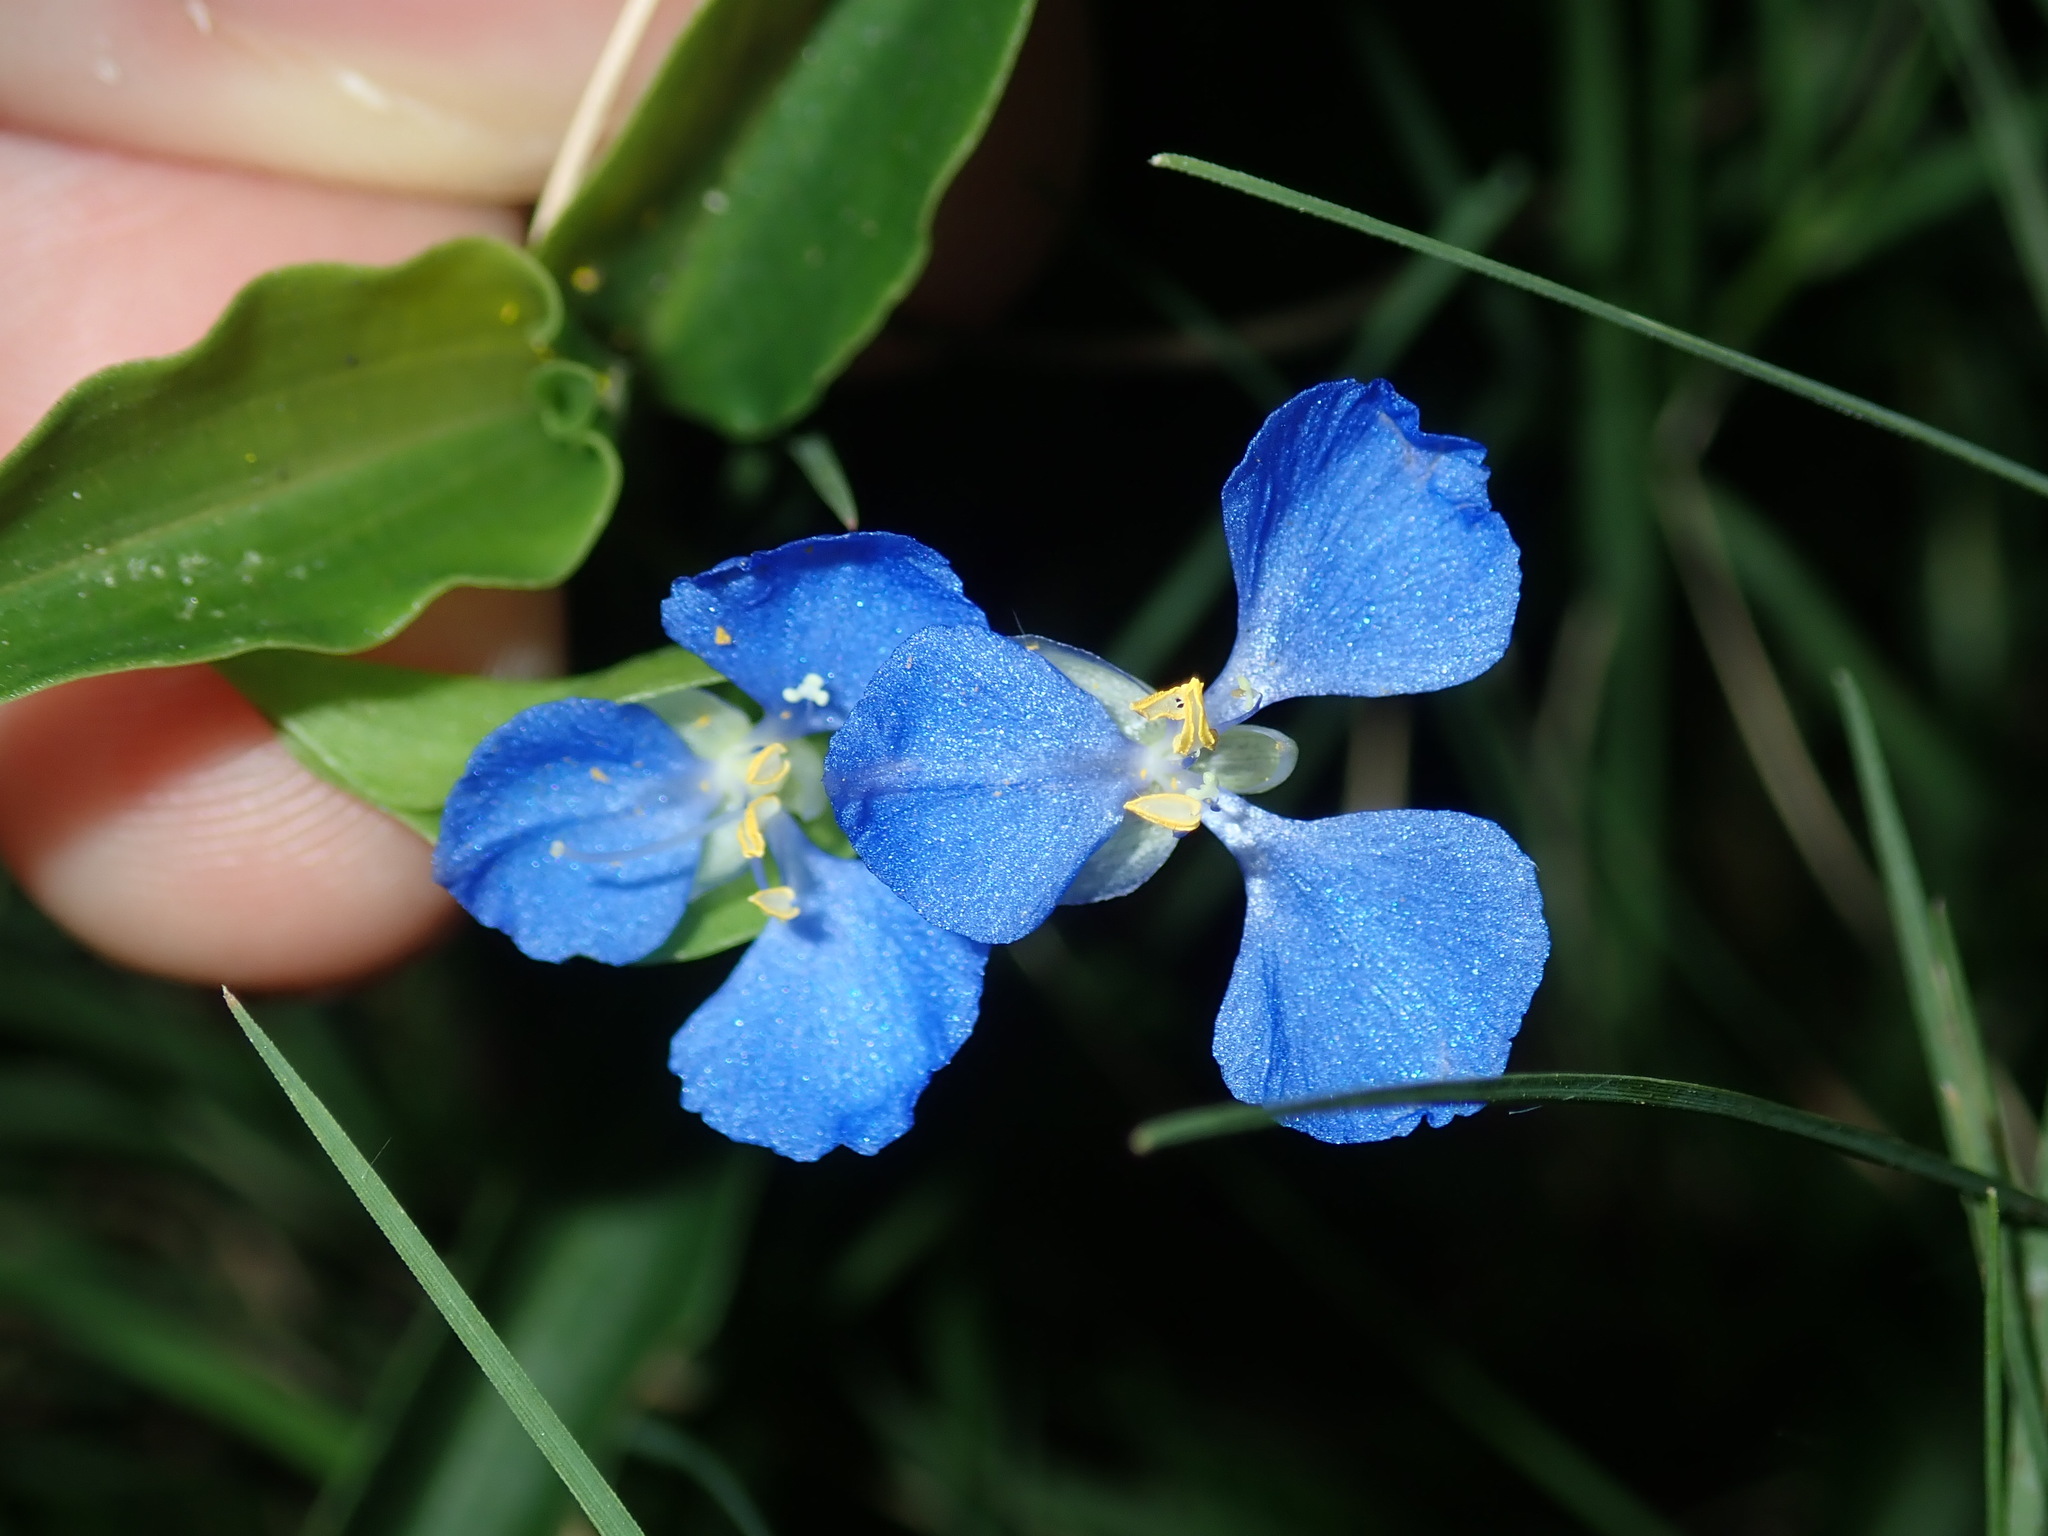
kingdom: Plantae
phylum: Tracheophyta
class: Liliopsida
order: Commelinales
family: Commelinaceae
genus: Commelina
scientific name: Commelina cyanea
